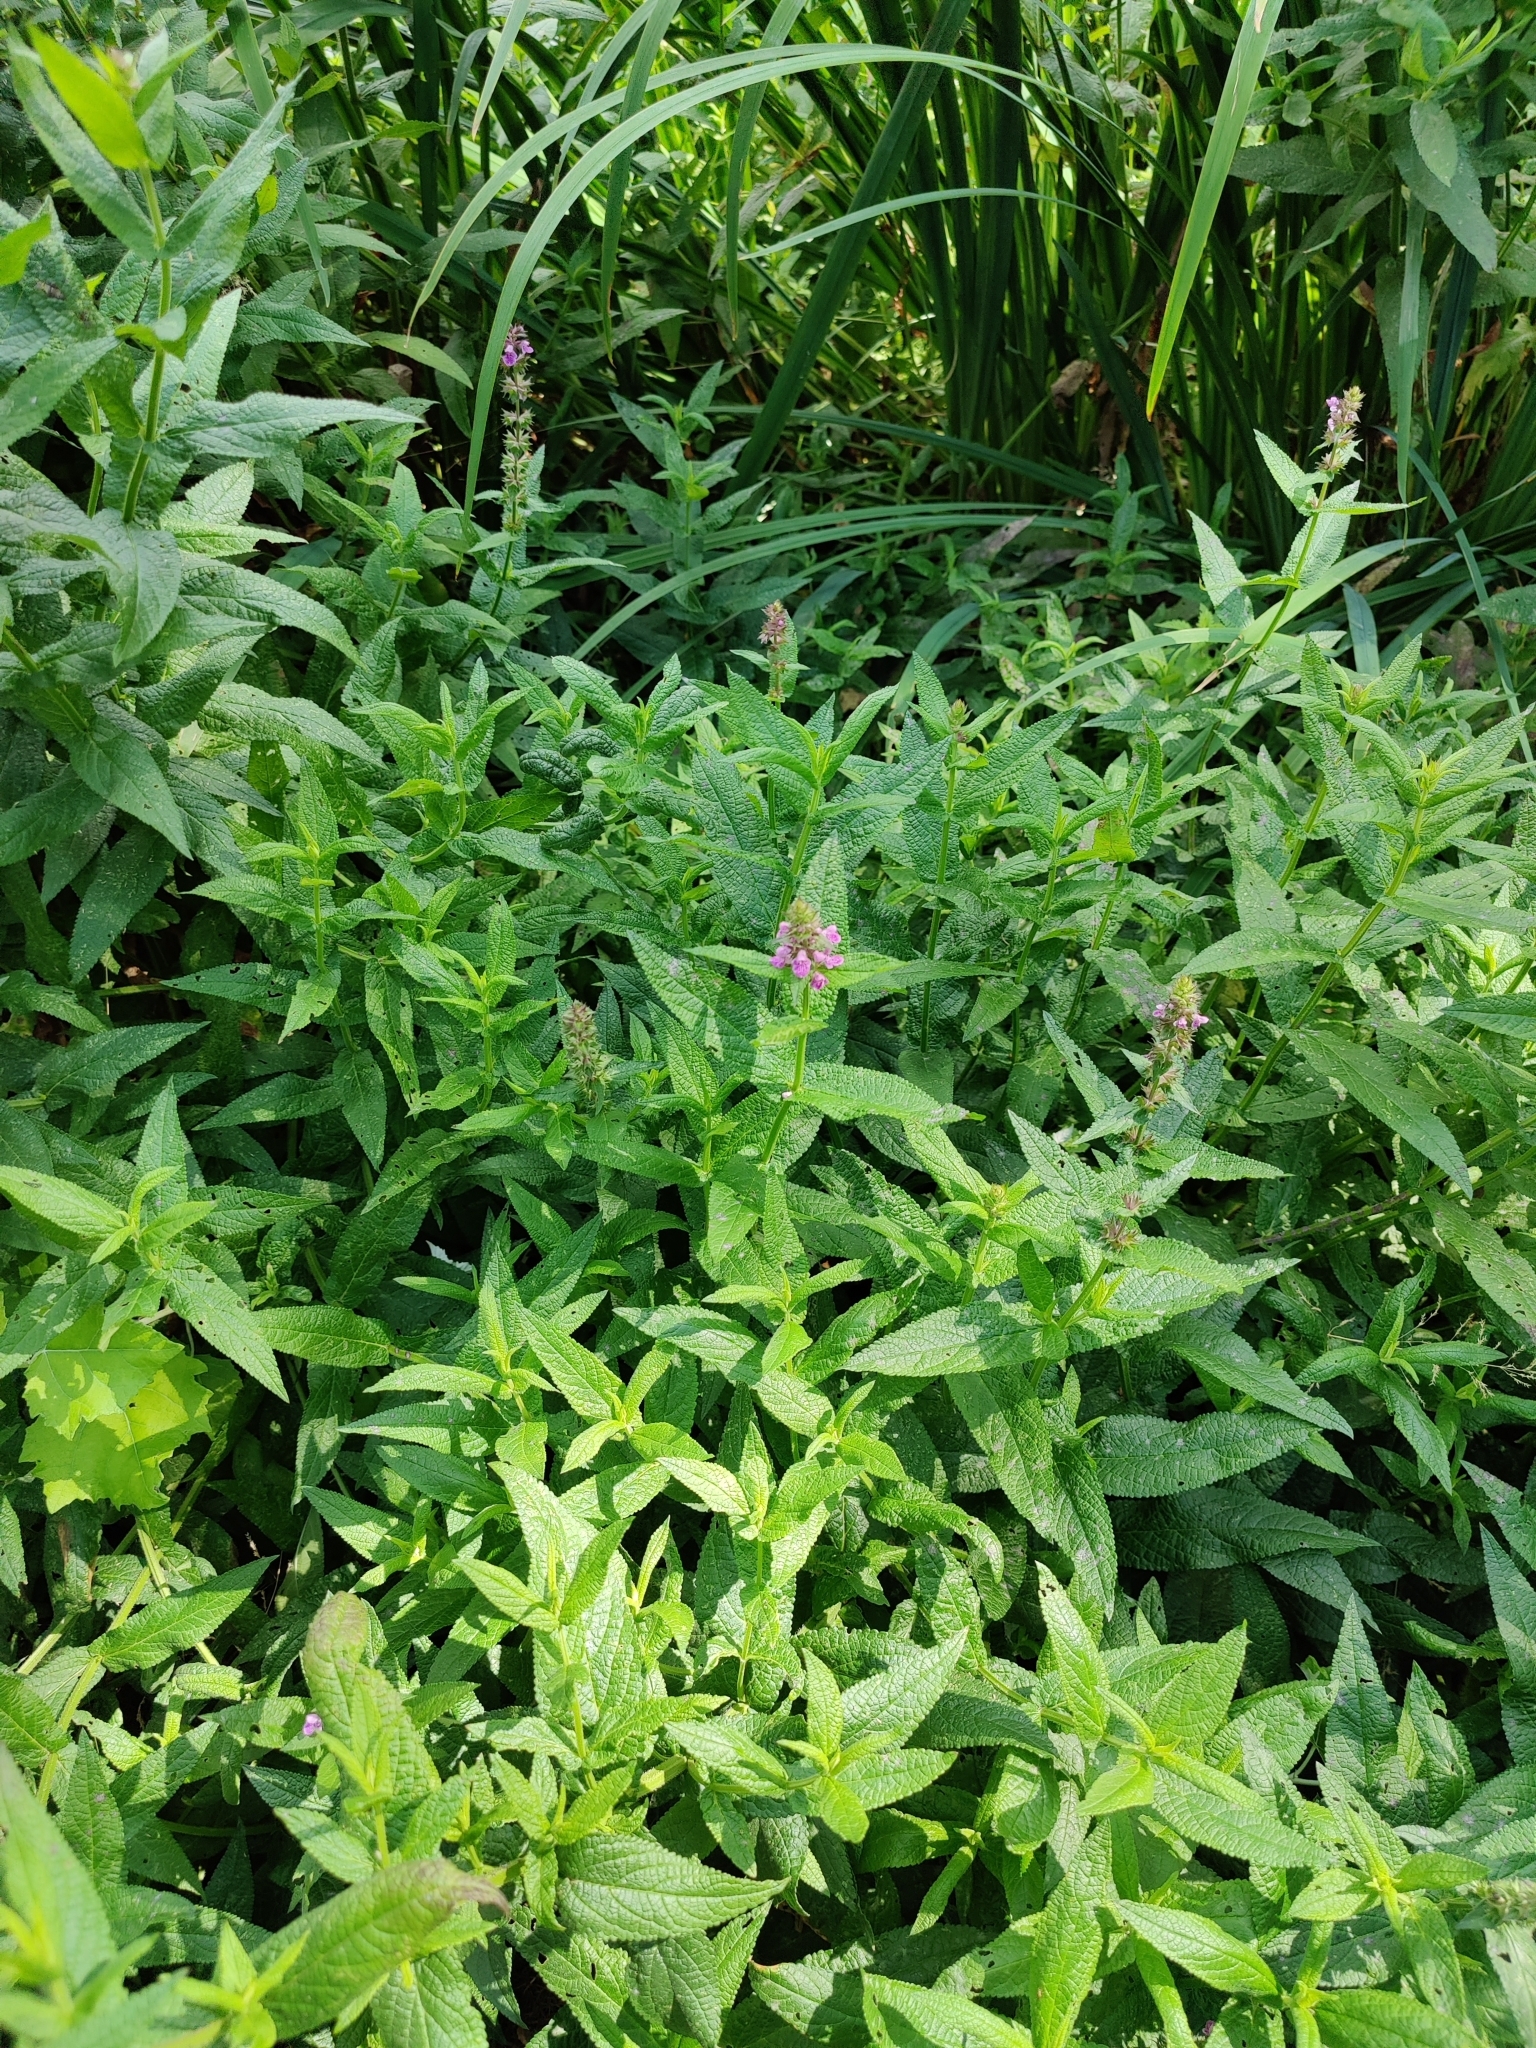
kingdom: Plantae
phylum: Tracheophyta
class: Magnoliopsida
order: Lamiales
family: Lamiaceae
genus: Stachys
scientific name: Stachys palustris
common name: Marsh woundwort
